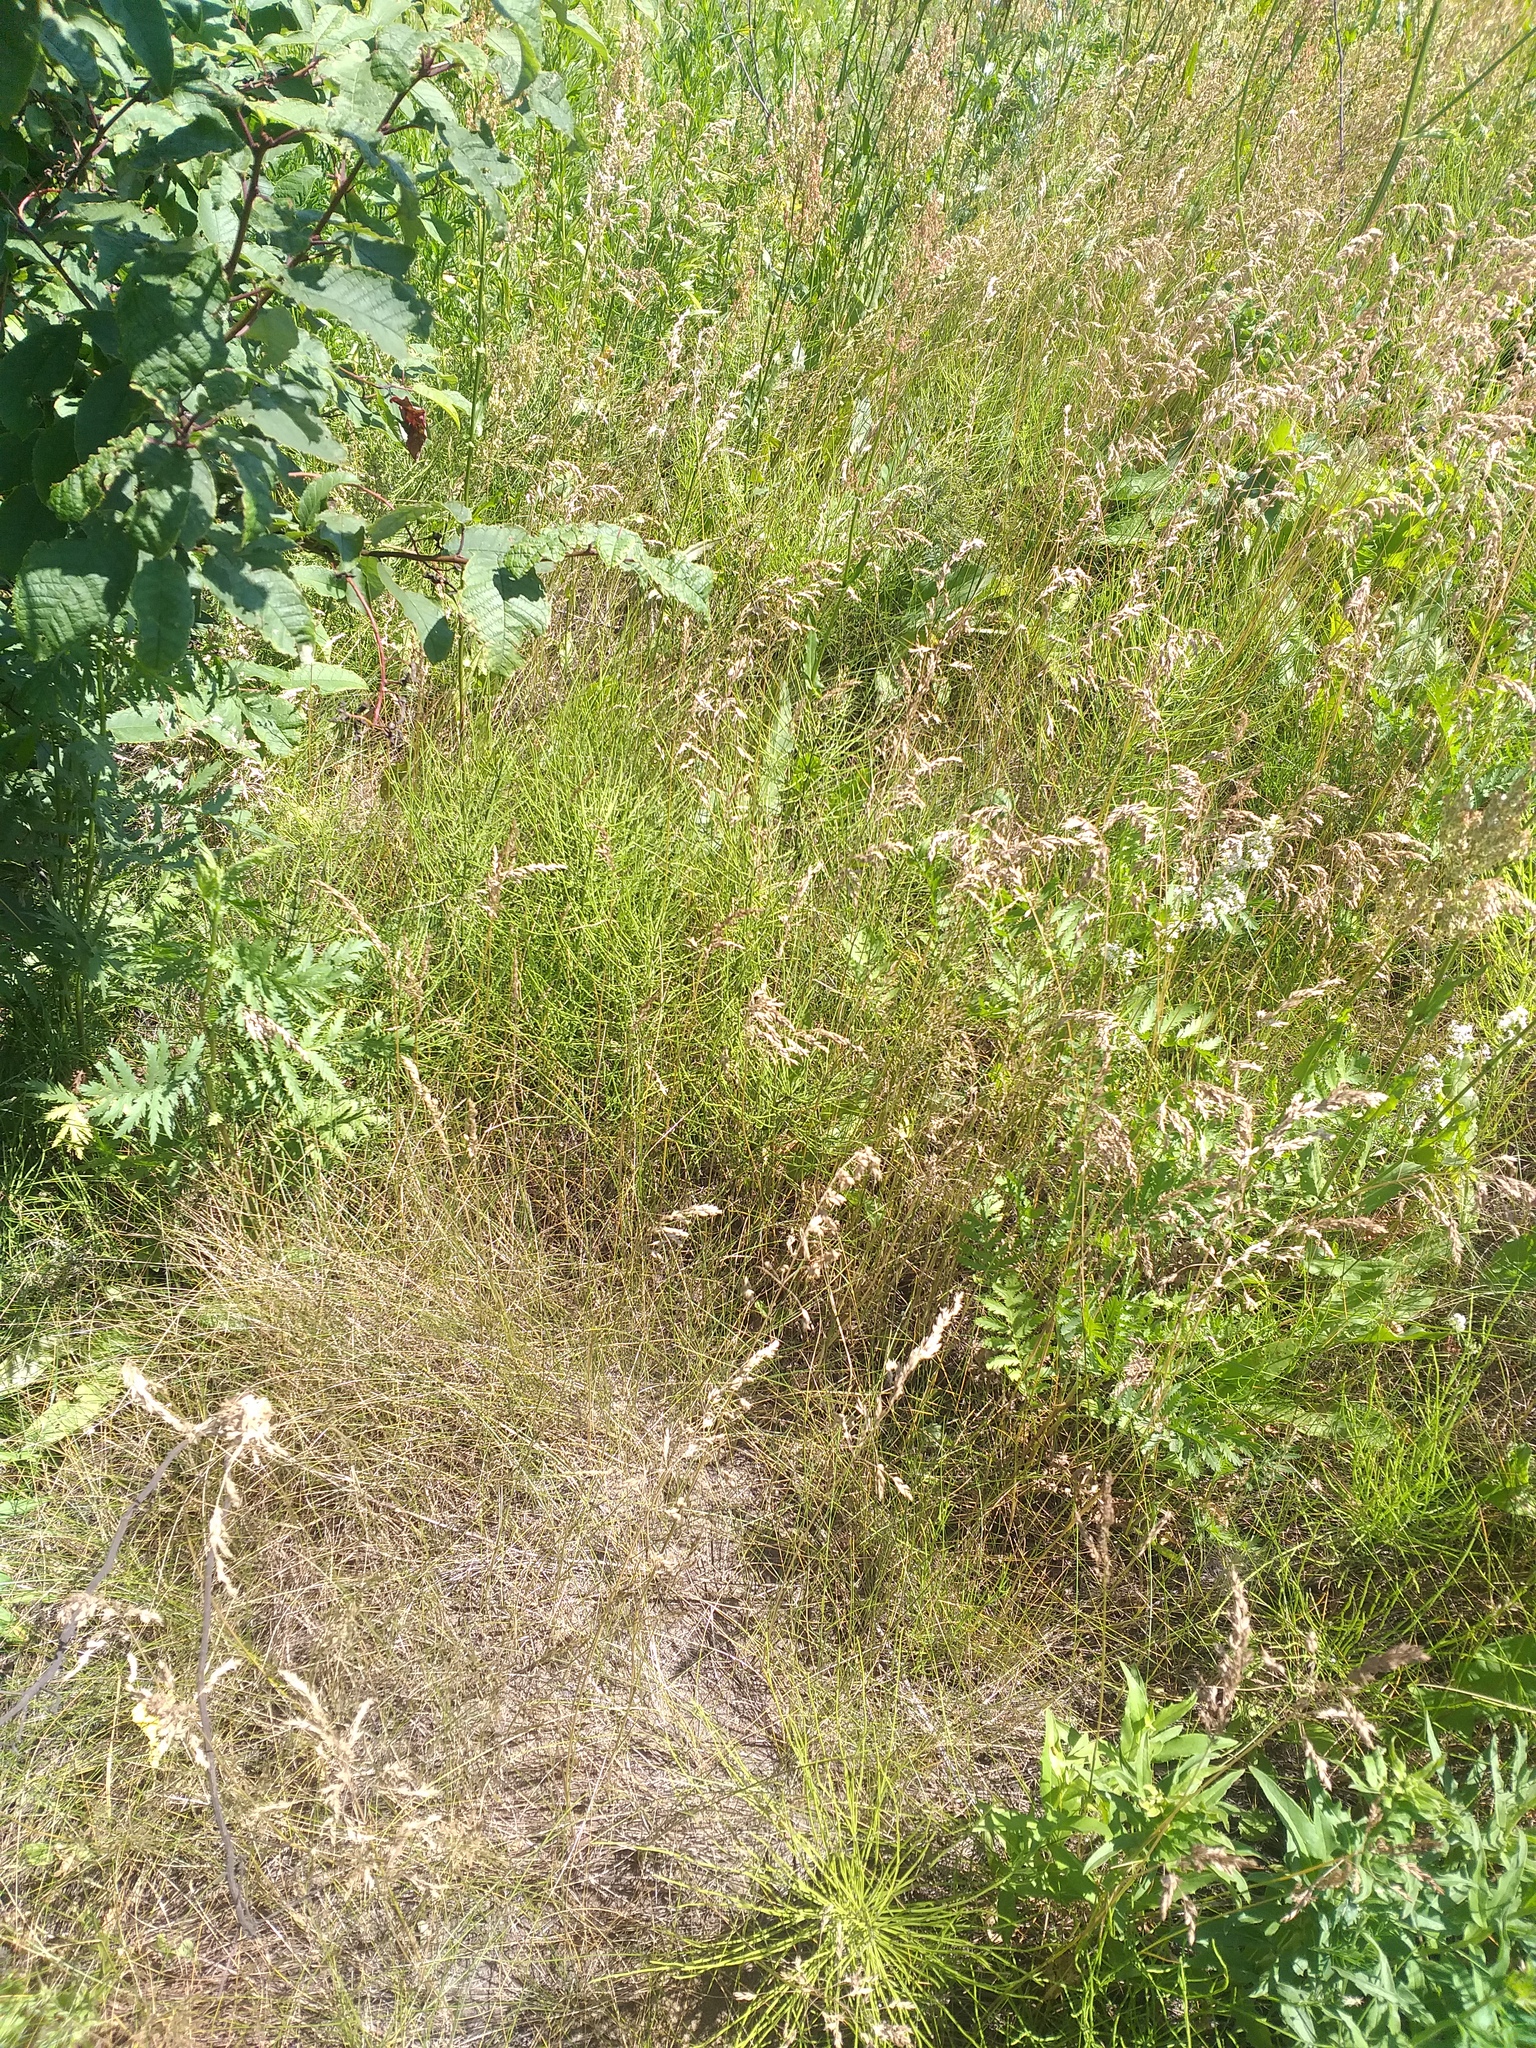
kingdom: Plantae
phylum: Tracheophyta
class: Liliopsida
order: Poales
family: Poaceae
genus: Poa
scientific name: Poa angustifolia
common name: Narrow-leaved meadow-grass
